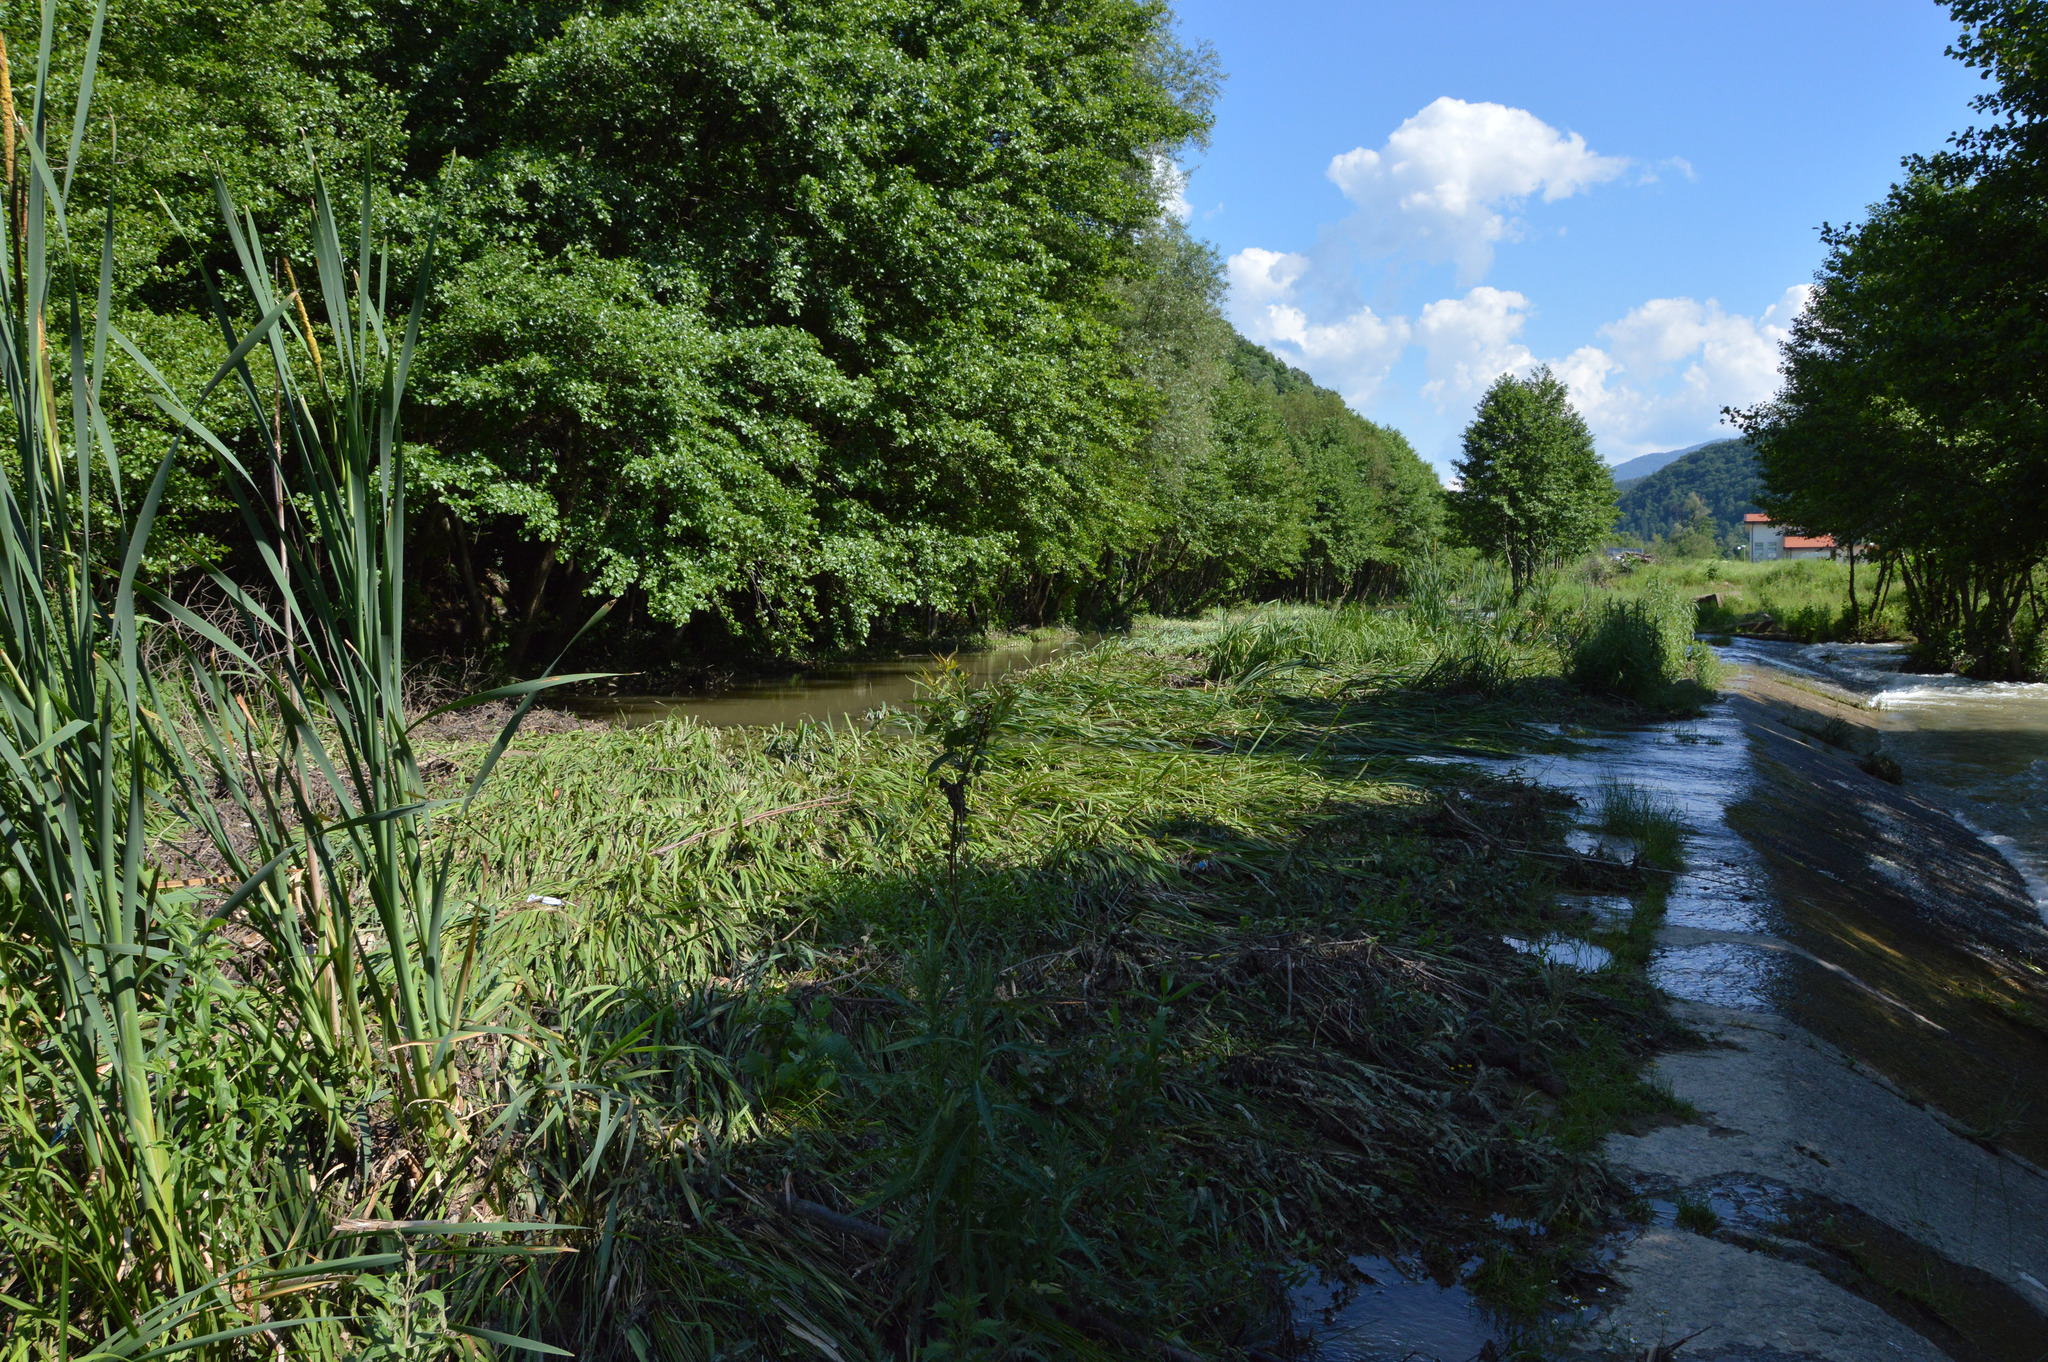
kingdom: Animalia
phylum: Arthropoda
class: Insecta
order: Odonata
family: Libellulidae
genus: Orthetrum
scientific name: Orthetrum coerulescens
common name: Keeled skimmer
